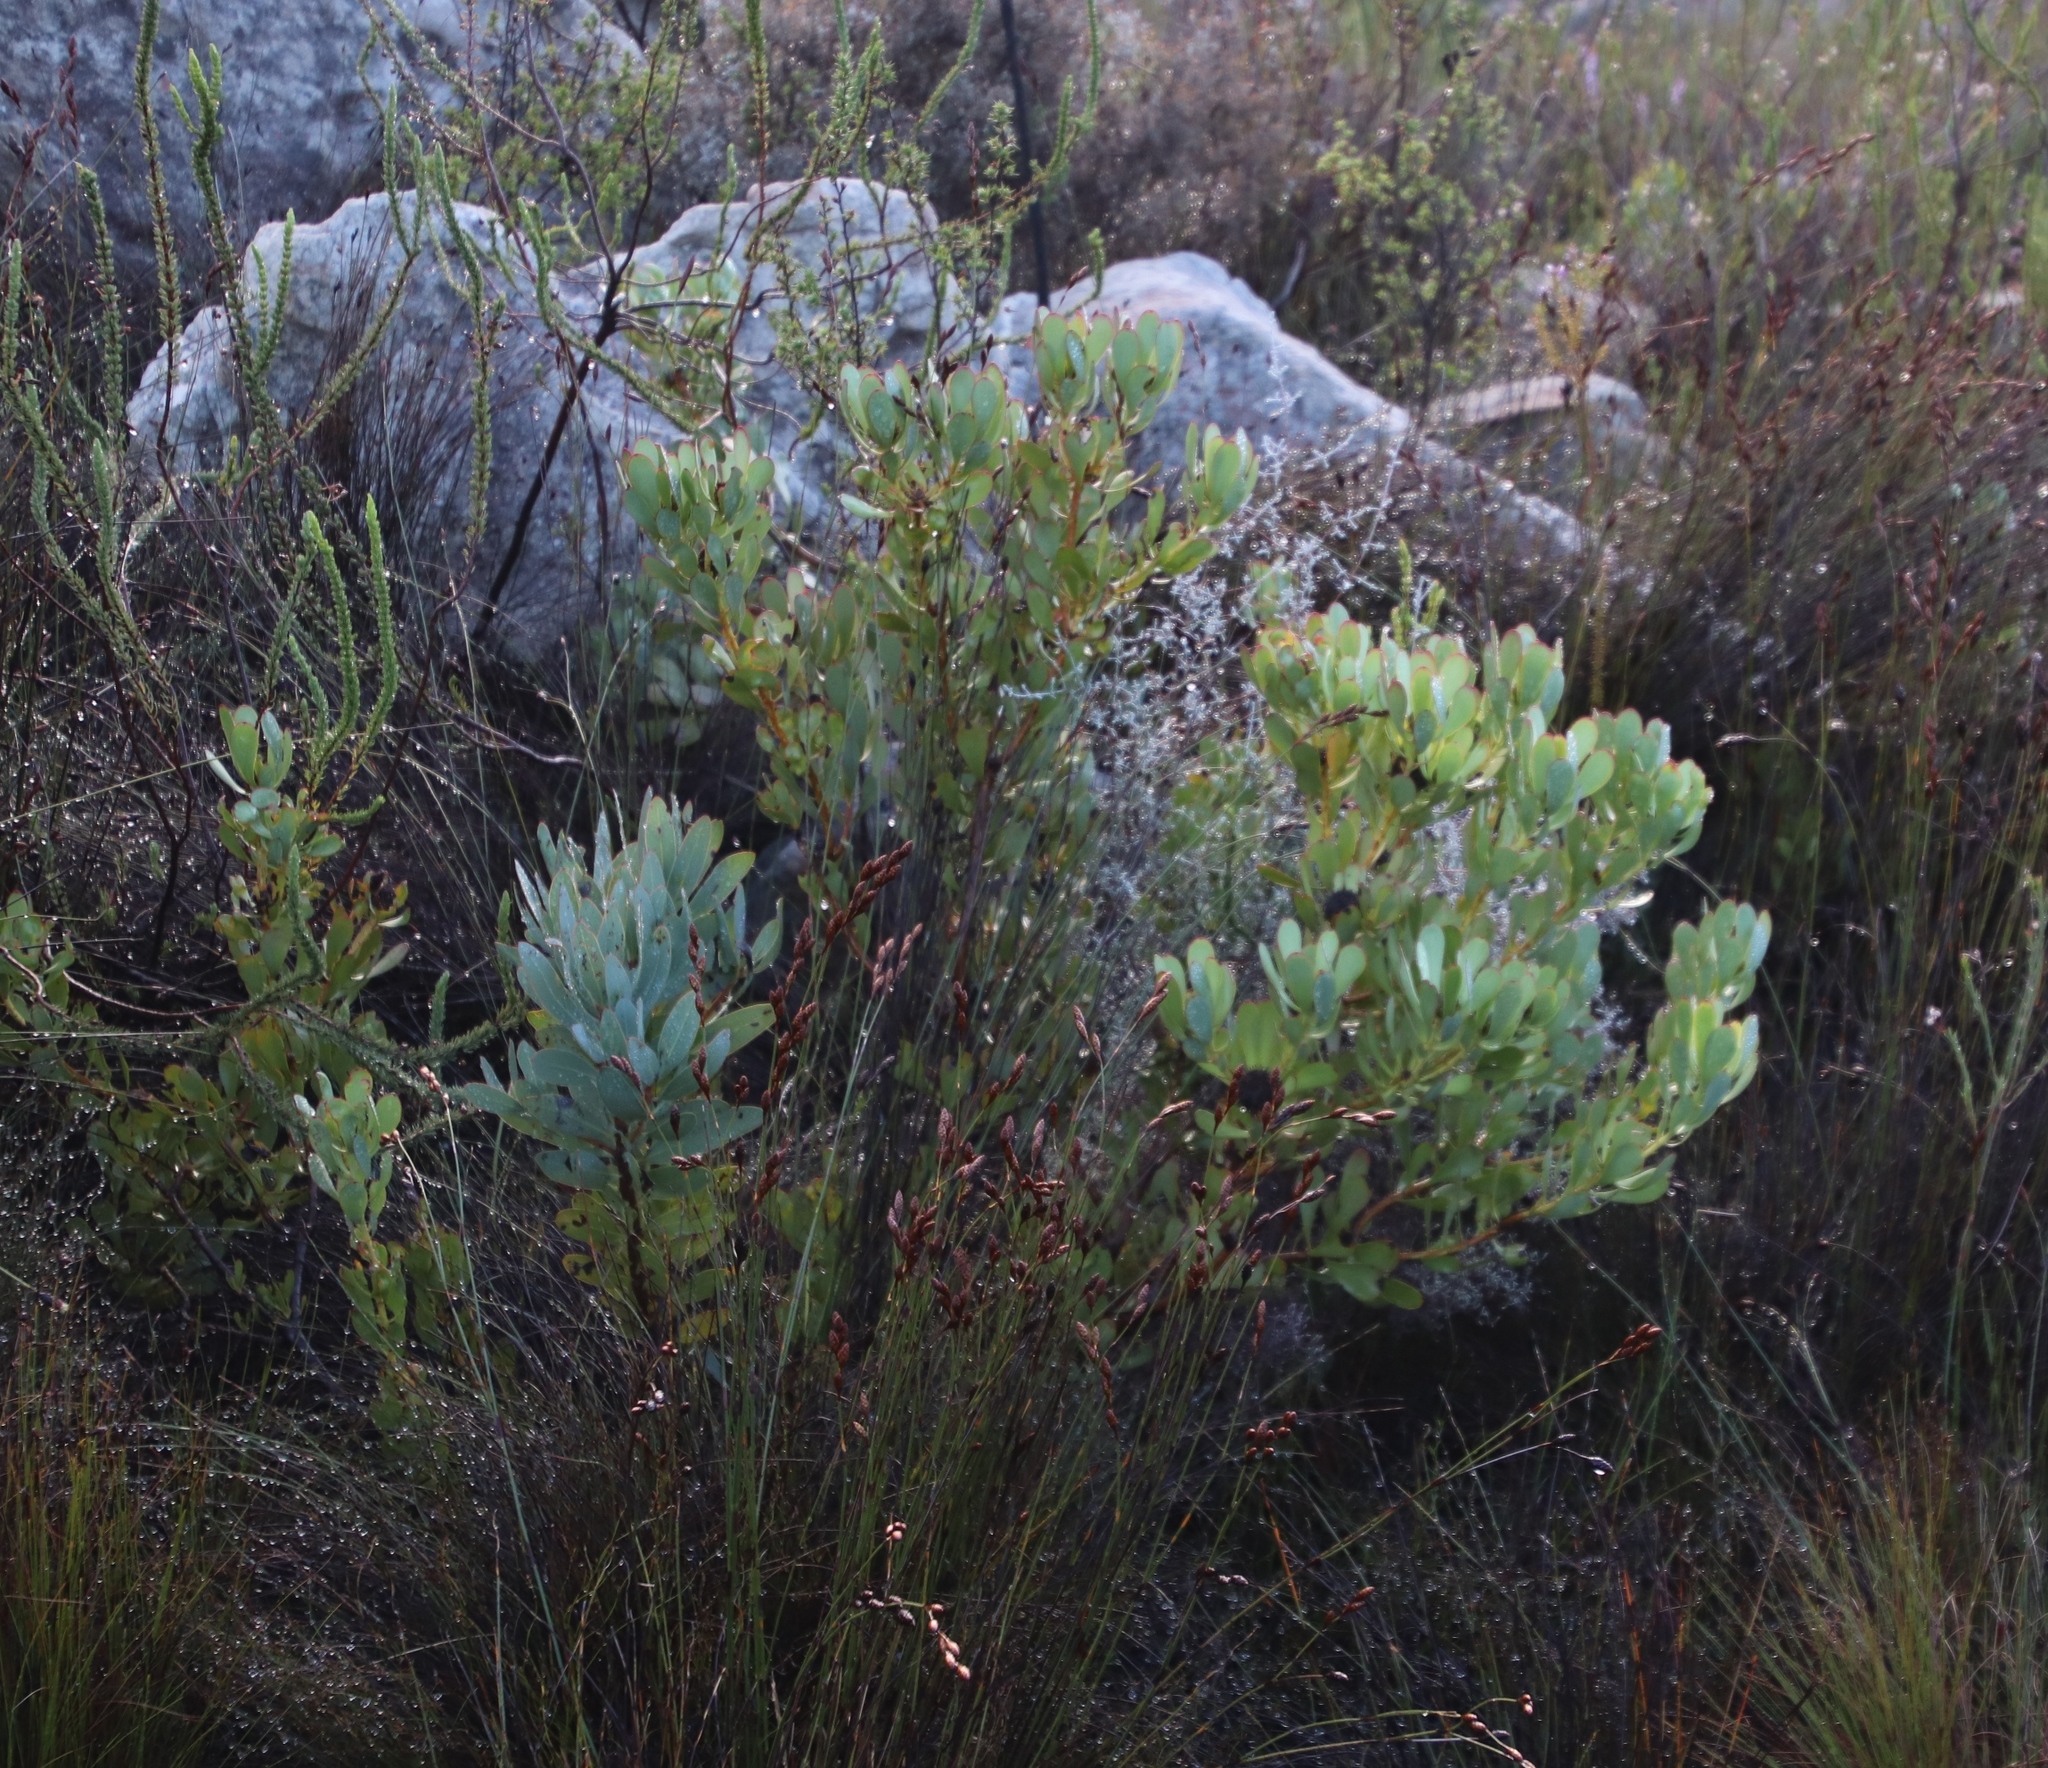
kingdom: Plantae
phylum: Tracheophyta
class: Magnoliopsida
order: Proteales
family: Proteaceae
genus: Leucadendron
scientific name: Leucadendron arcuatum
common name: Red-edge conebush
